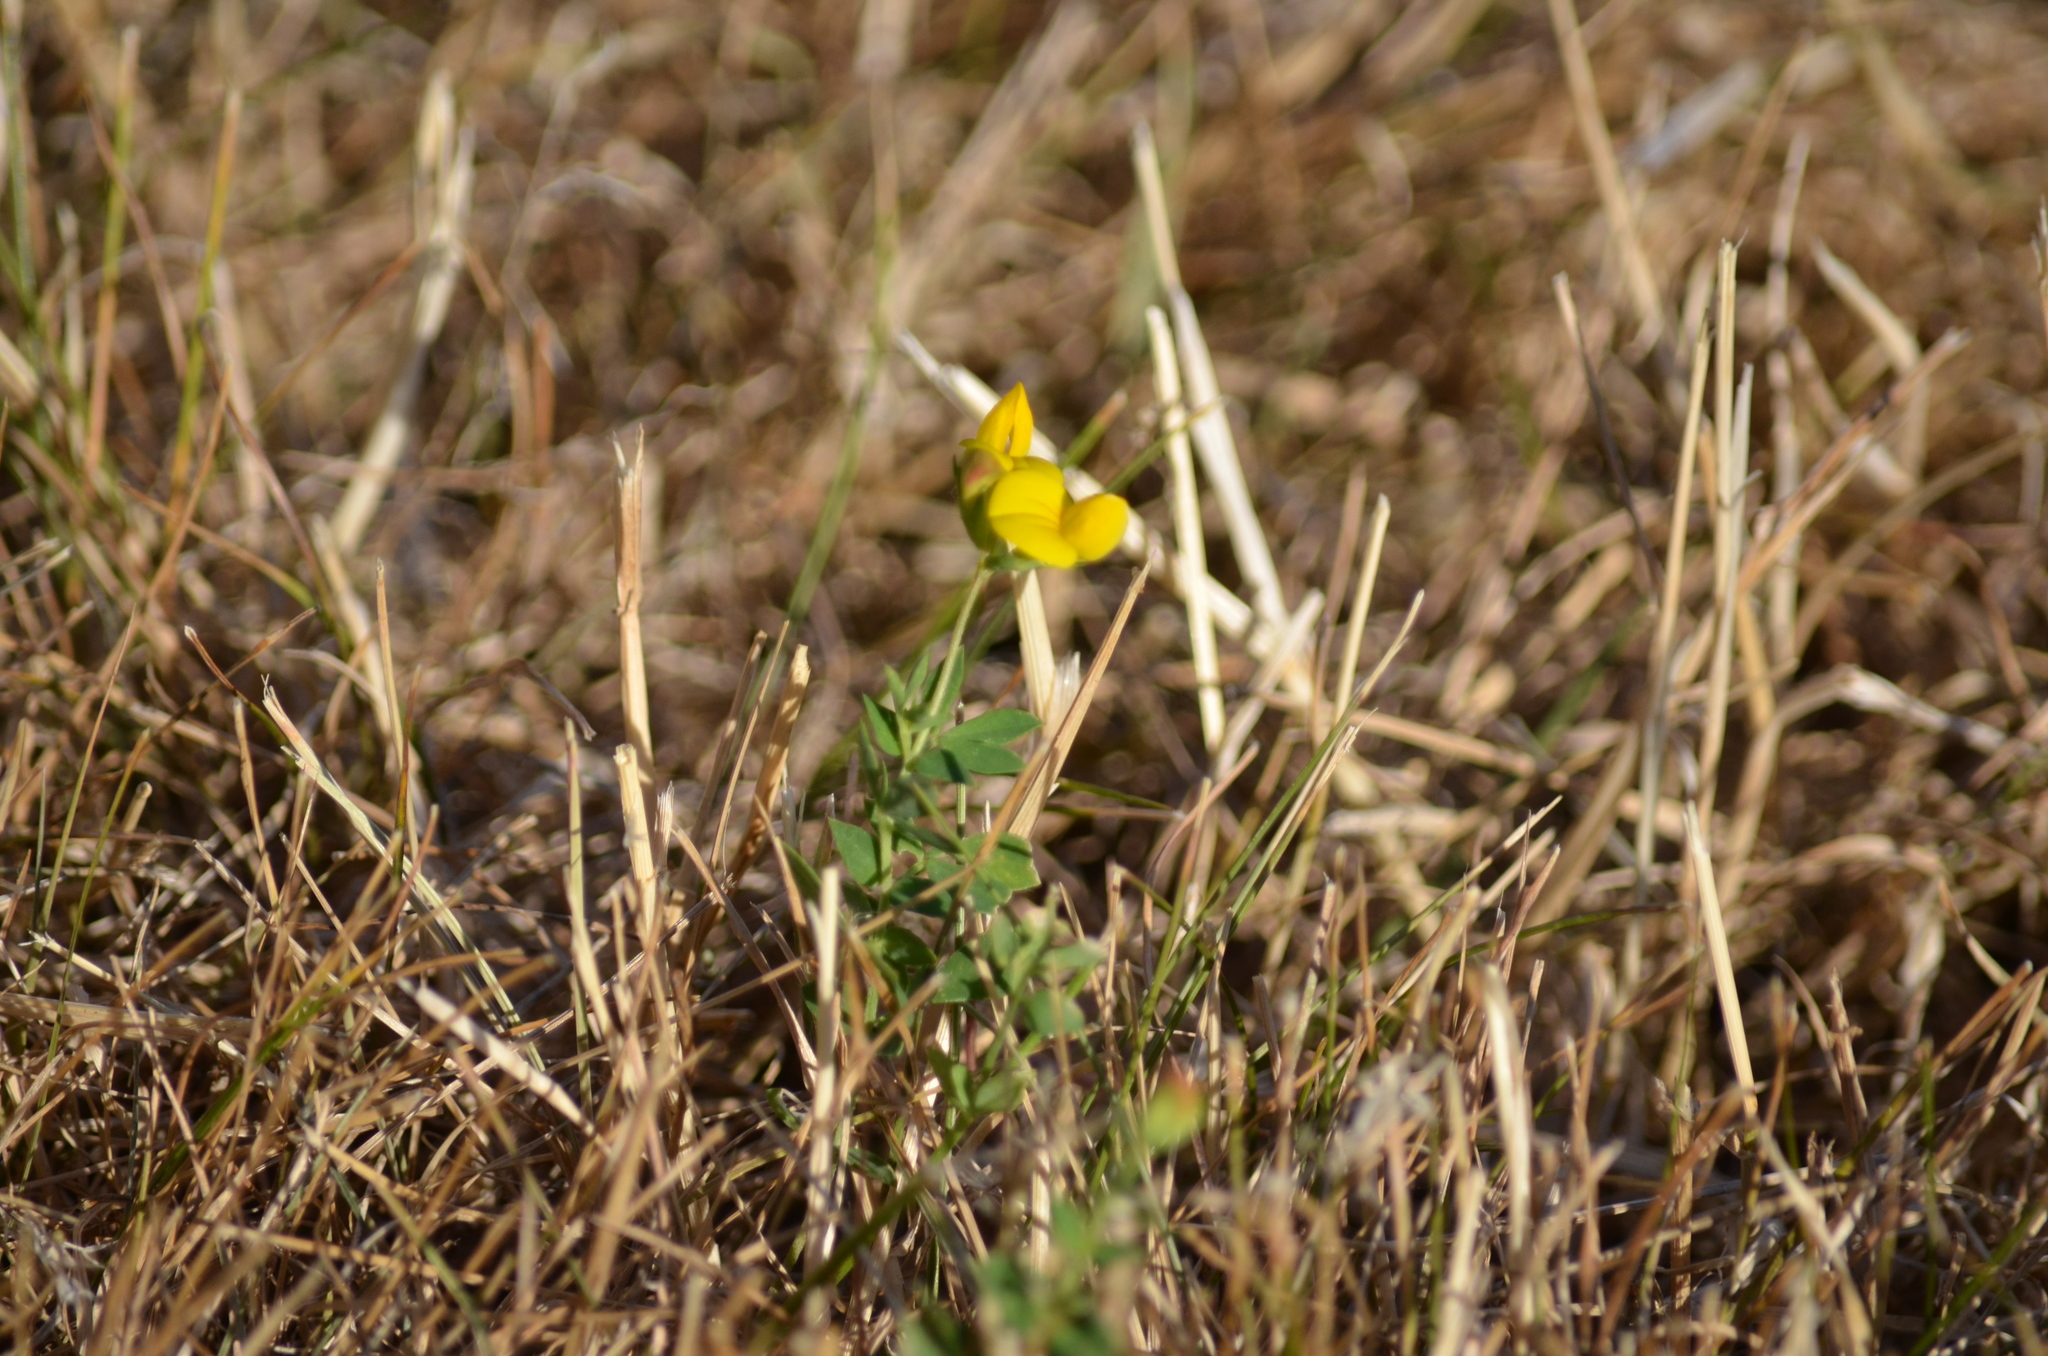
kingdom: Plantae
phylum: Tracheophyta
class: Magnoliopsida
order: Fabales
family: Fabaceae
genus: Lotus
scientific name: Lotus corniculatus
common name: Common bird's-foot-trefoil
